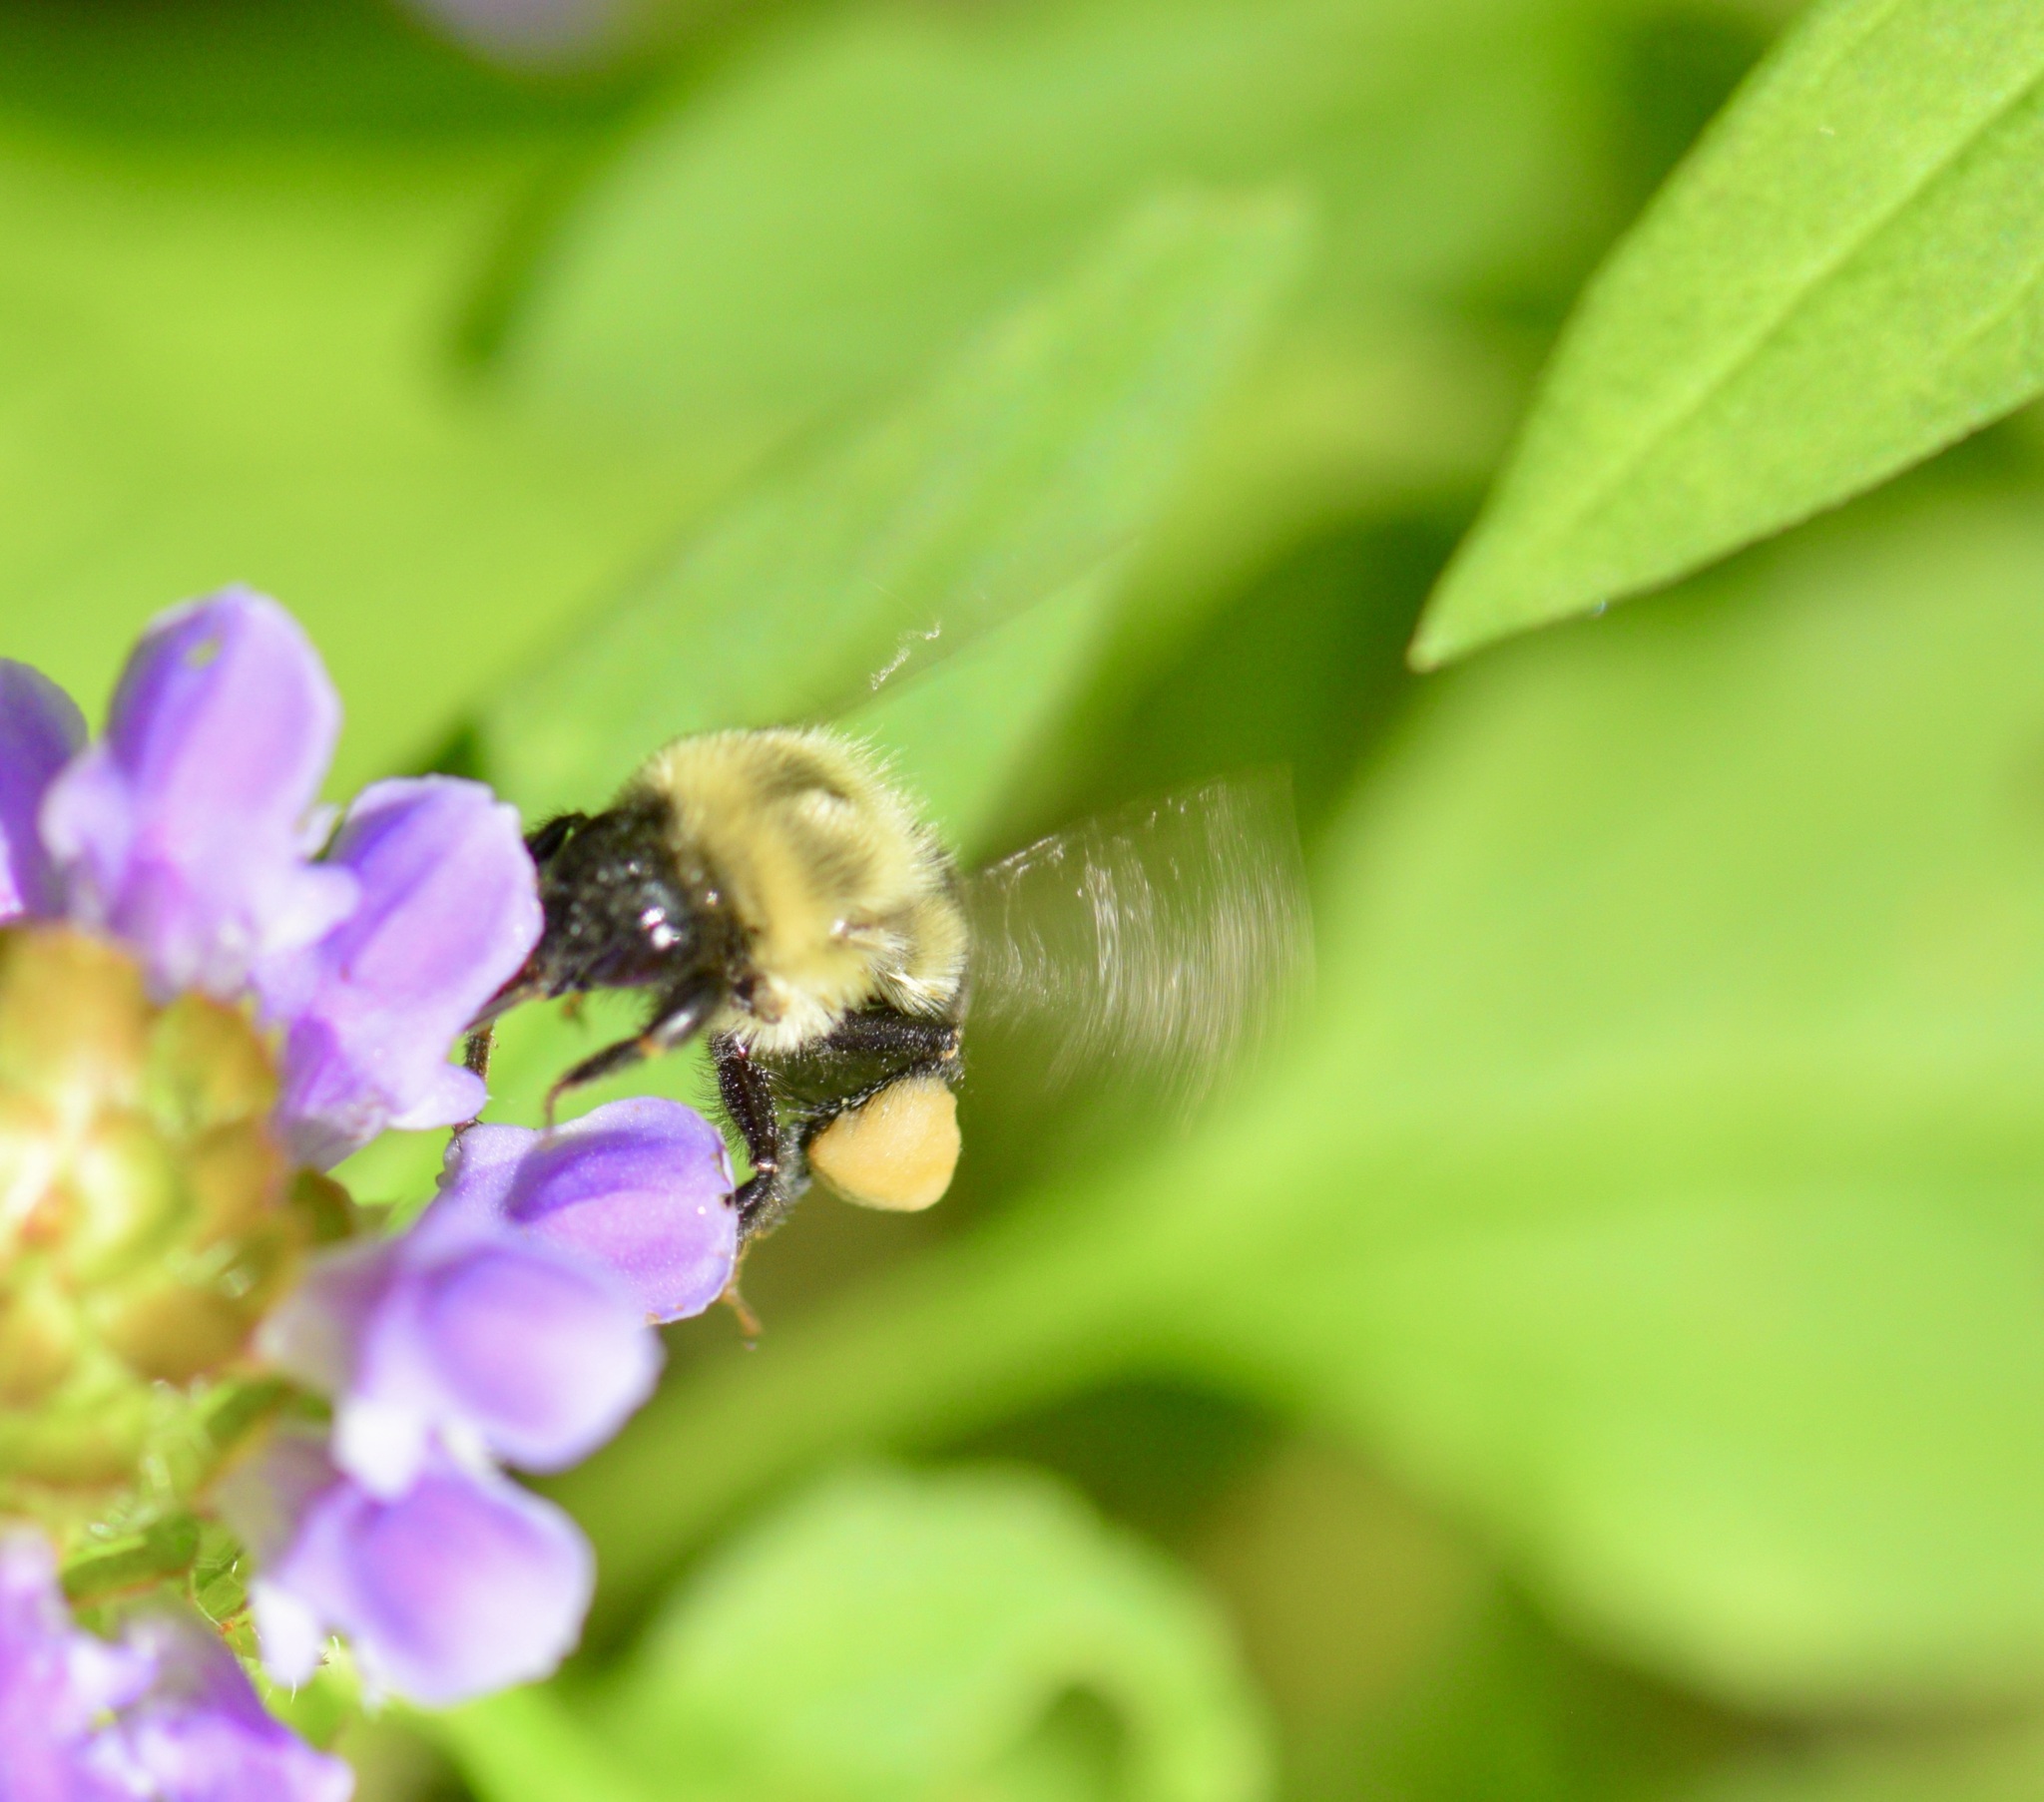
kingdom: Animalia
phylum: Arthropoda
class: Insecta
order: Hymenoptera
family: Apidae
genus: Bombus
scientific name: Bombus impatiens
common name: Common eastern bumble bee
